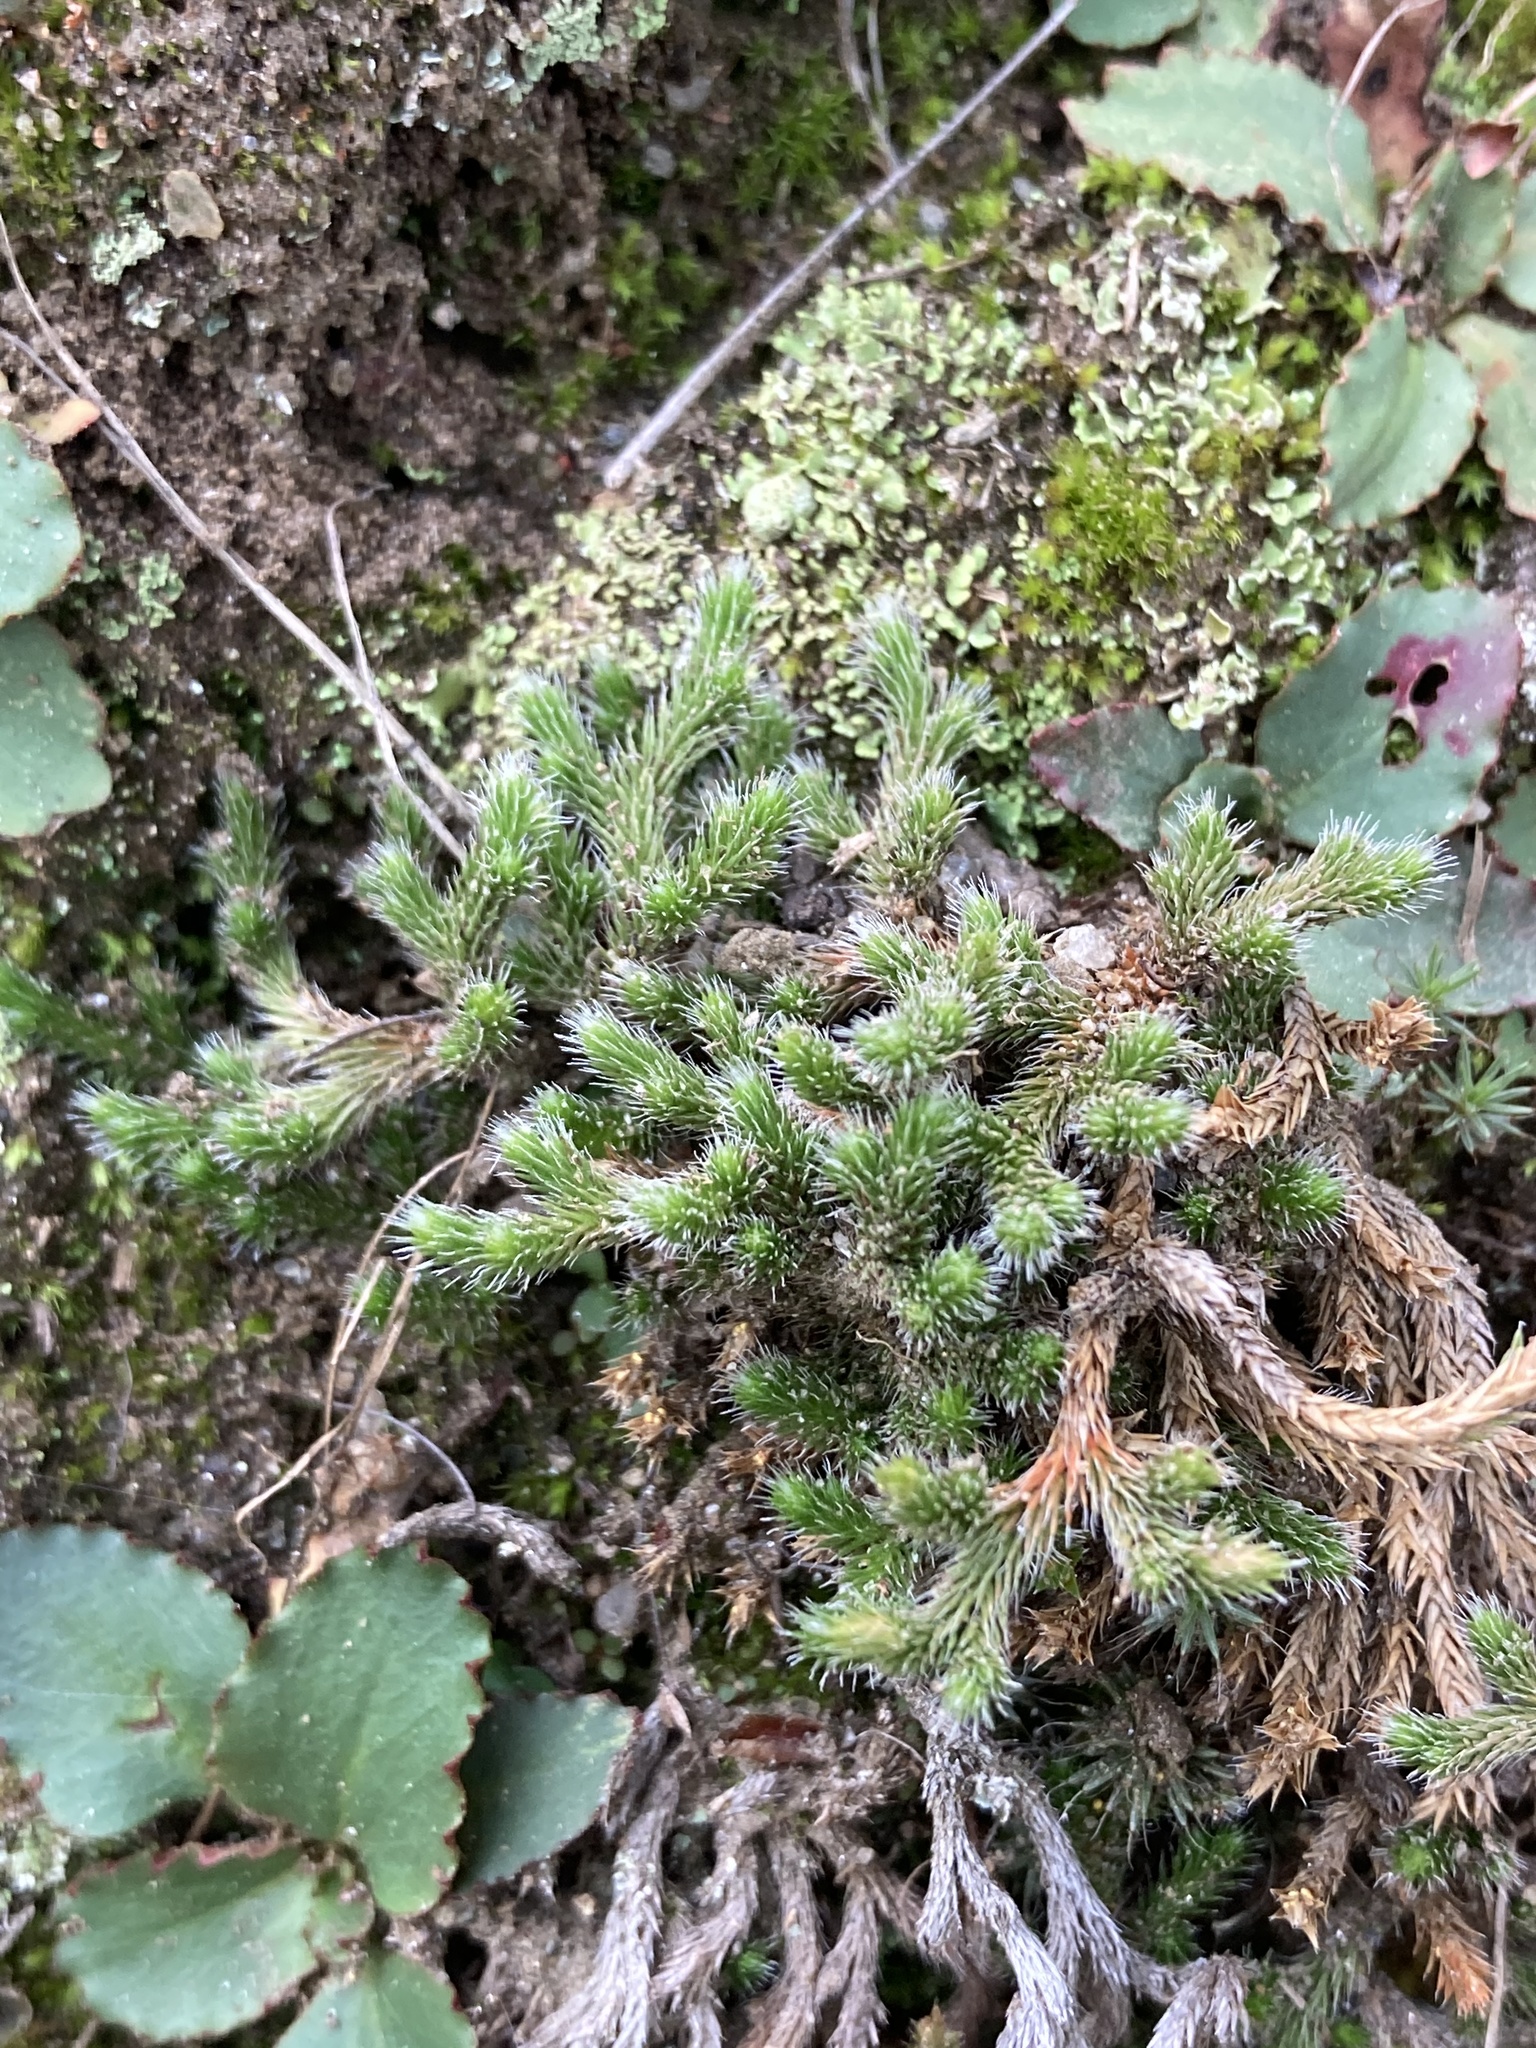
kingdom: Plantae
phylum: Tracheophyta
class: Lycopodiopsida
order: Selaginellales
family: Selaginellaceae
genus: Selaginella
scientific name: Selaginella rupestris
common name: Dwarf spikemoss
